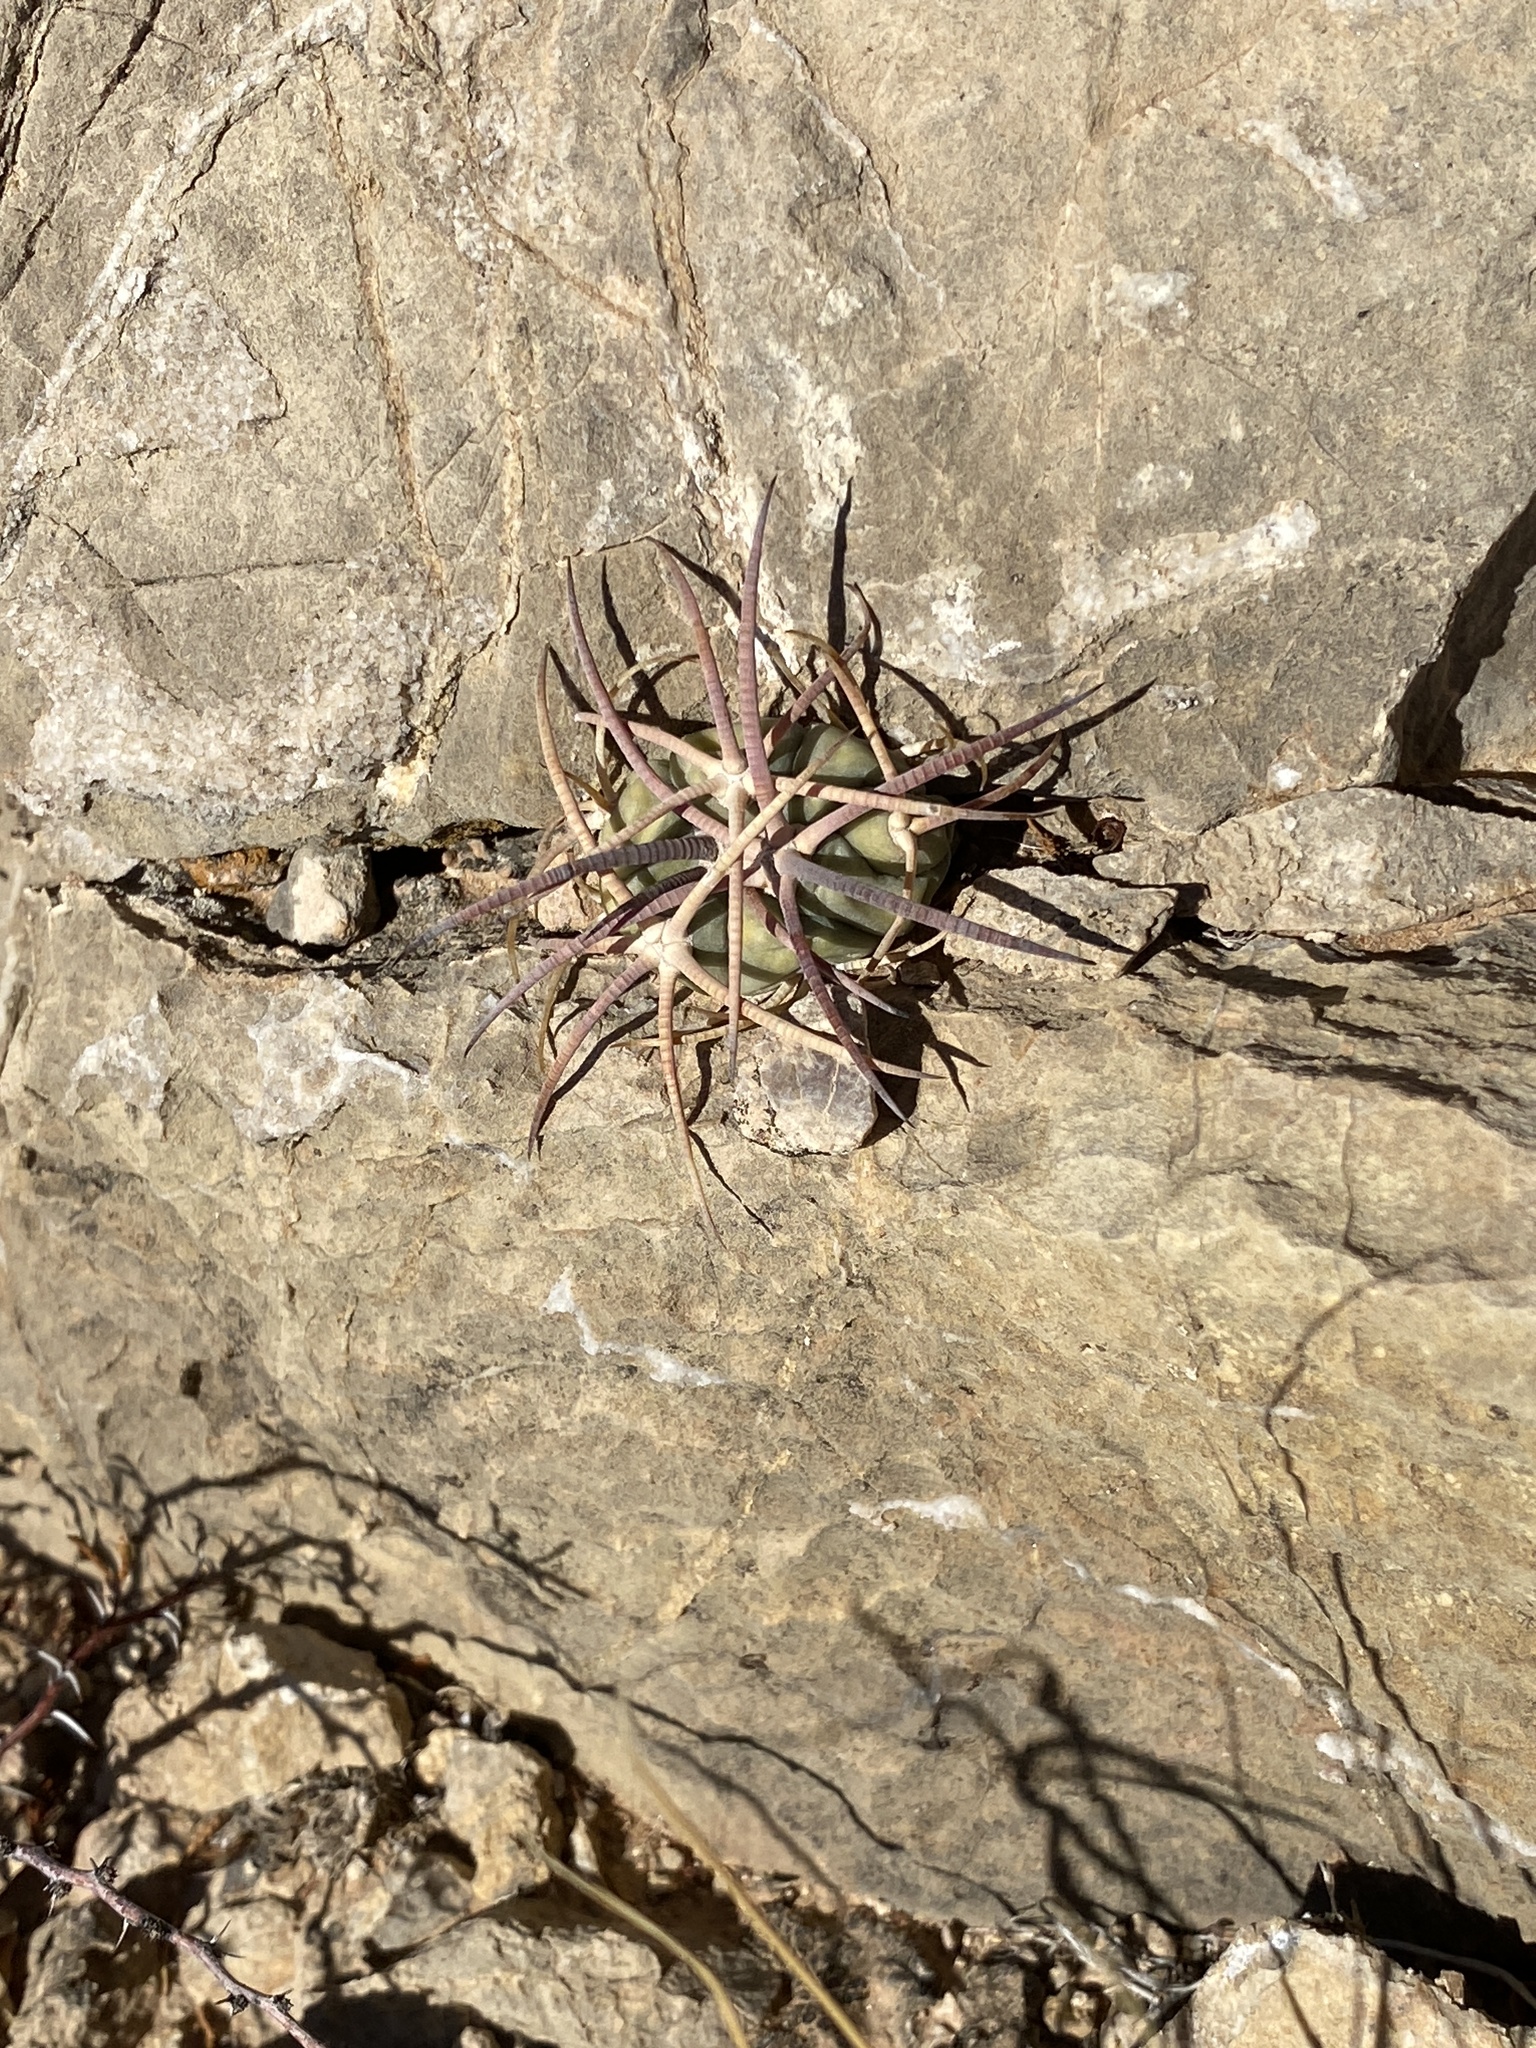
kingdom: Plantae
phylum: Tracheophyta
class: Magnoliopsida
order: Caryophyllales
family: Cactaceae
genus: Echinocactus
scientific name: Echinocactus horizonthalonius
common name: Devilshead
